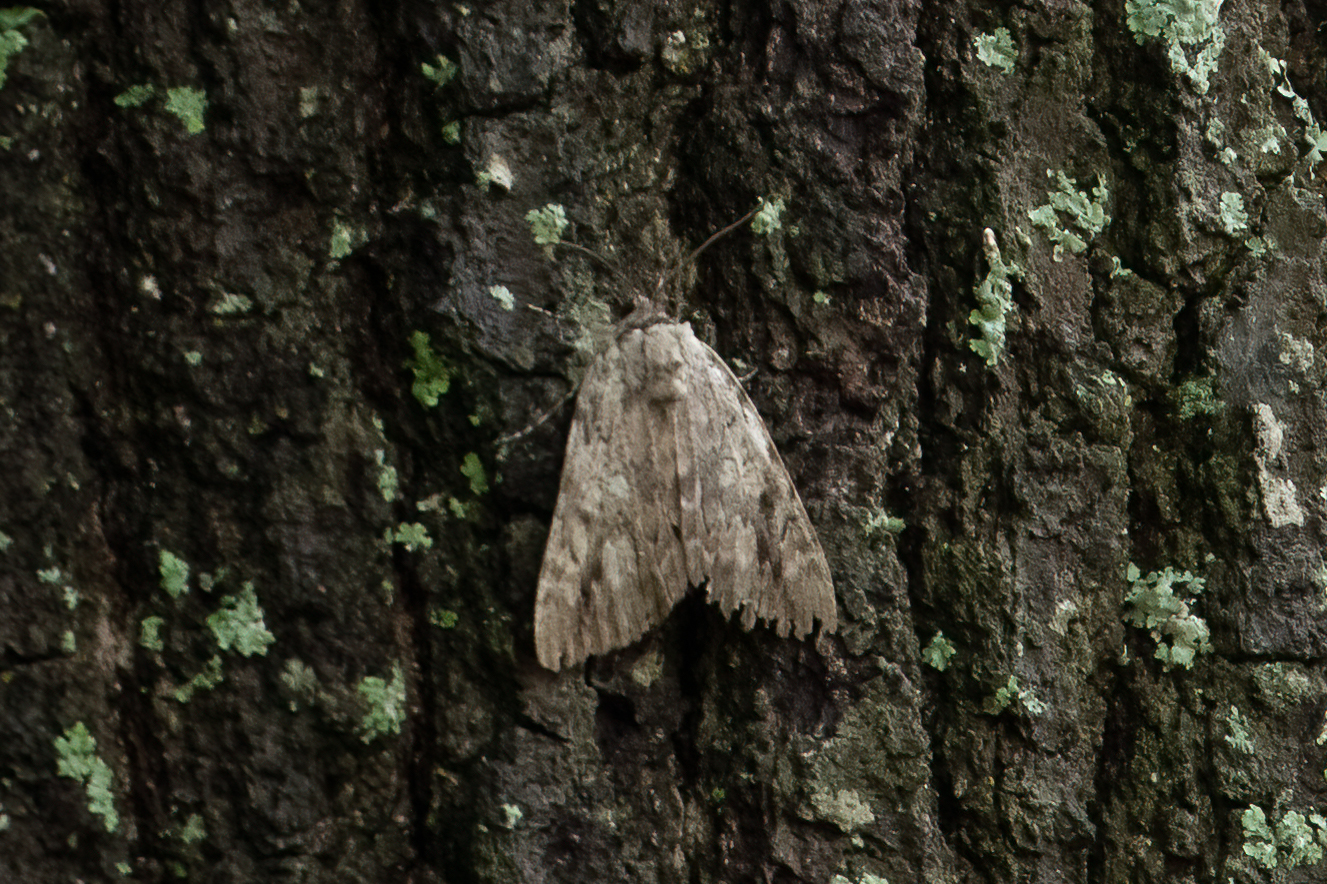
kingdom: Animalia
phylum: Arthropoda
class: Insecta
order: Lepidoptera
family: Erebidae
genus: Catocala
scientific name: Catocala maestosa
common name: Sad underwing
